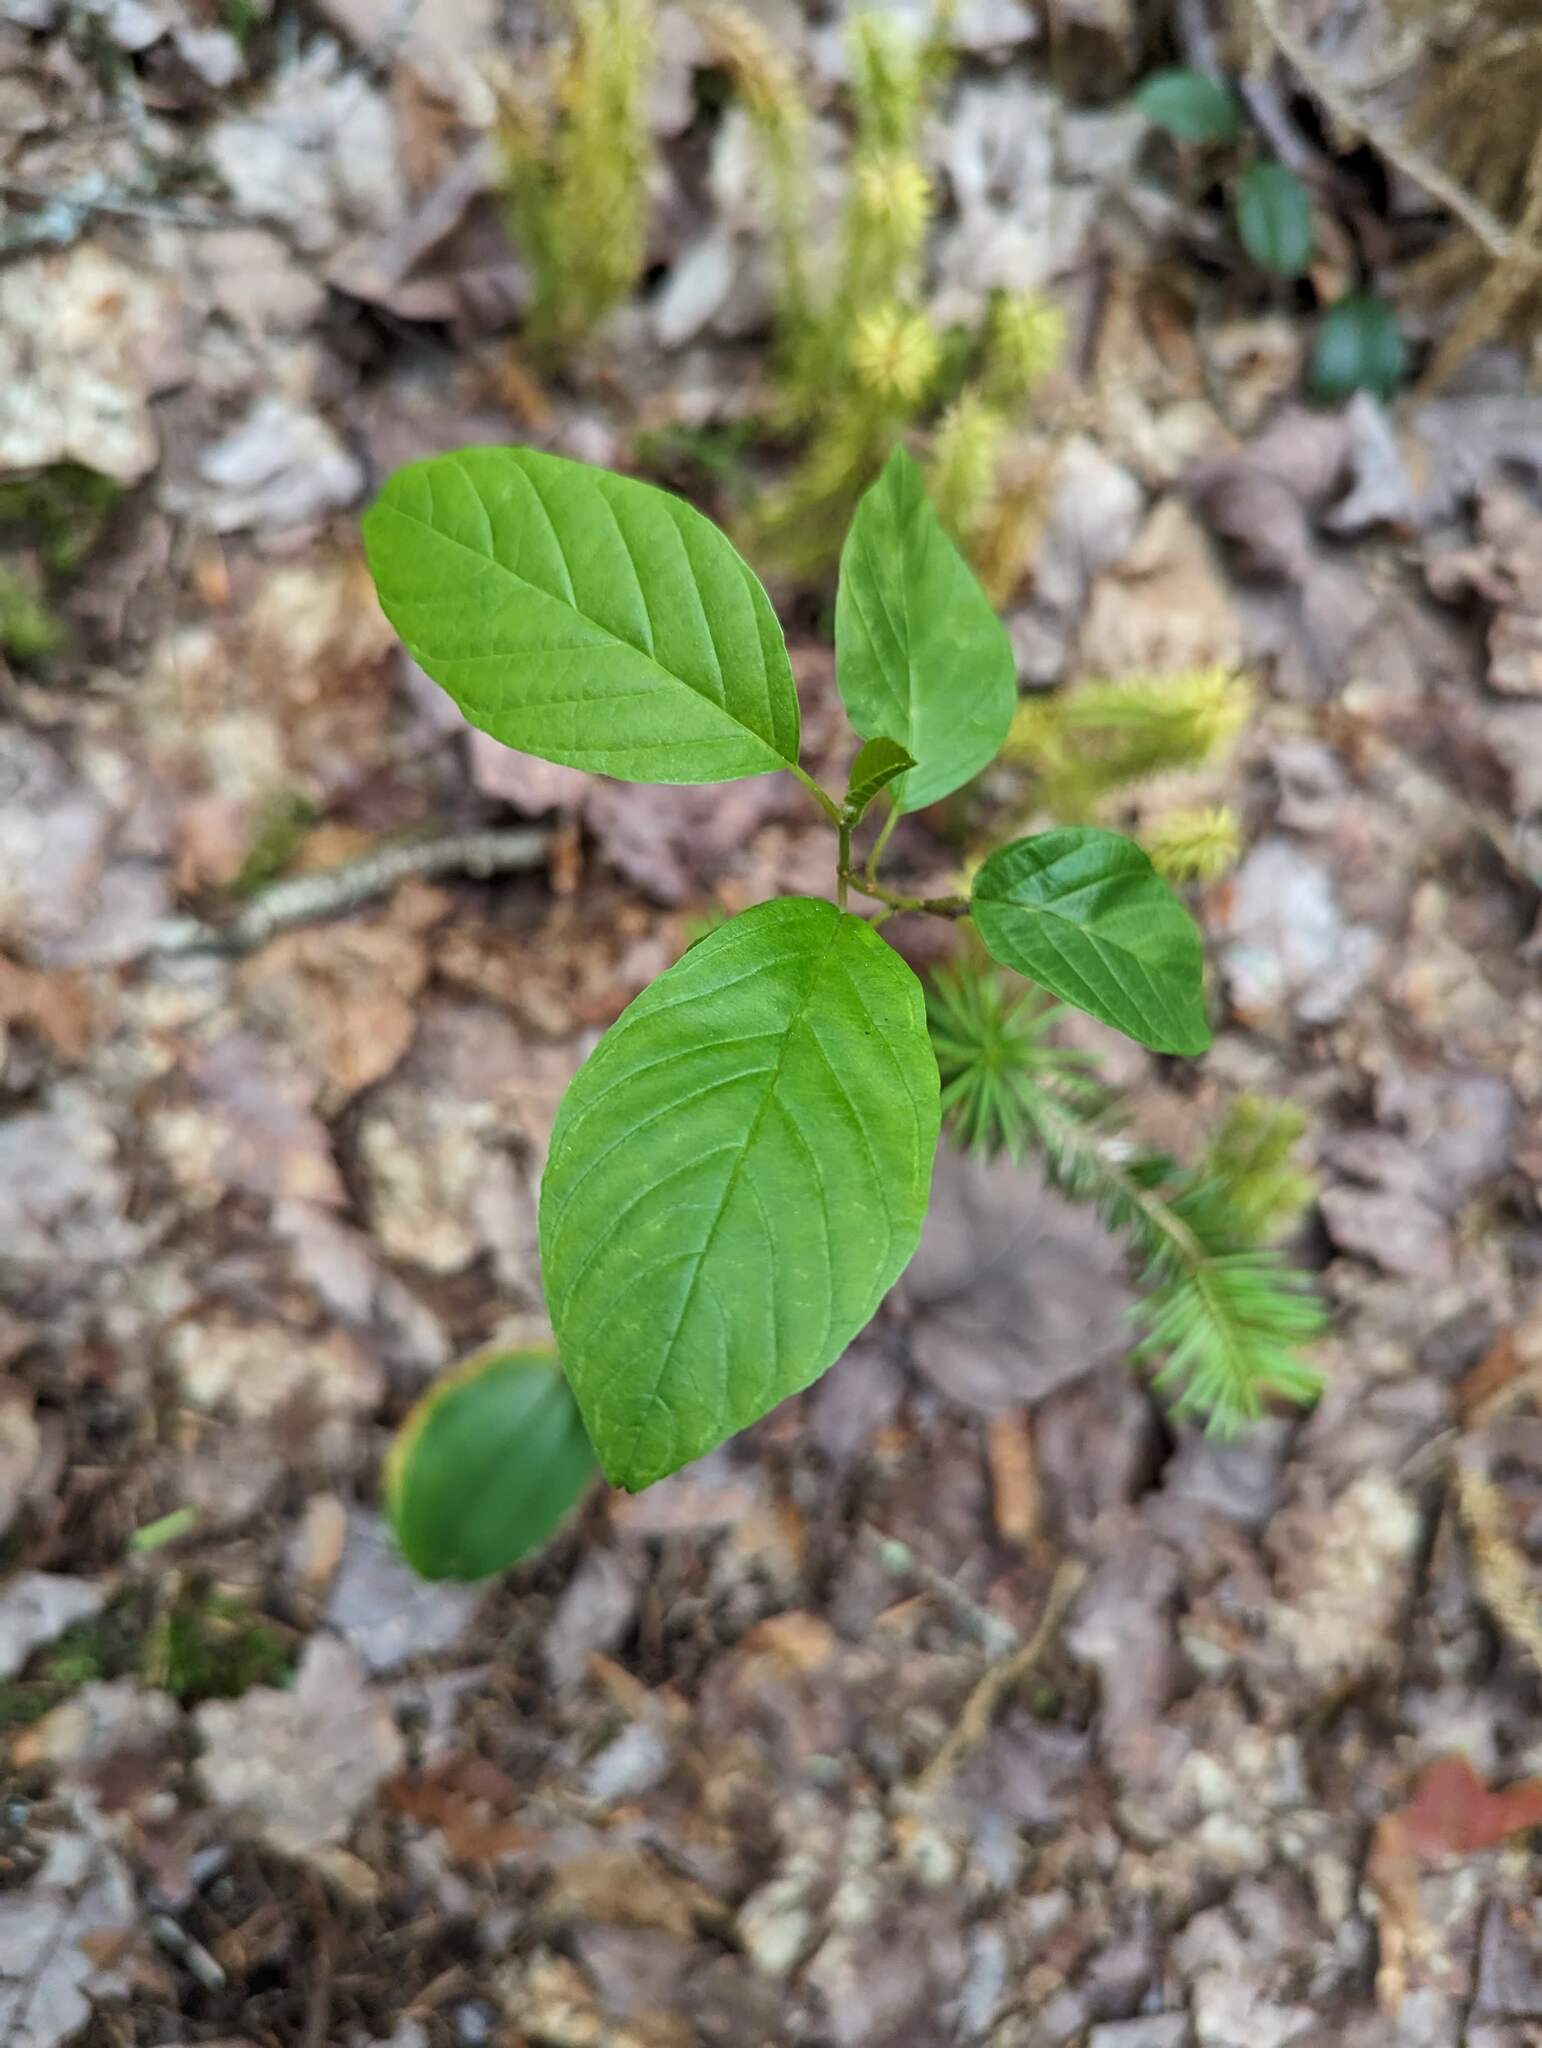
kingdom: Plantae
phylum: Tracheophyta
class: Magnoliopsida
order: Rosales
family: Rhamnaceae
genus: Frangula
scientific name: Frangula alnus
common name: Alder buckthorn
